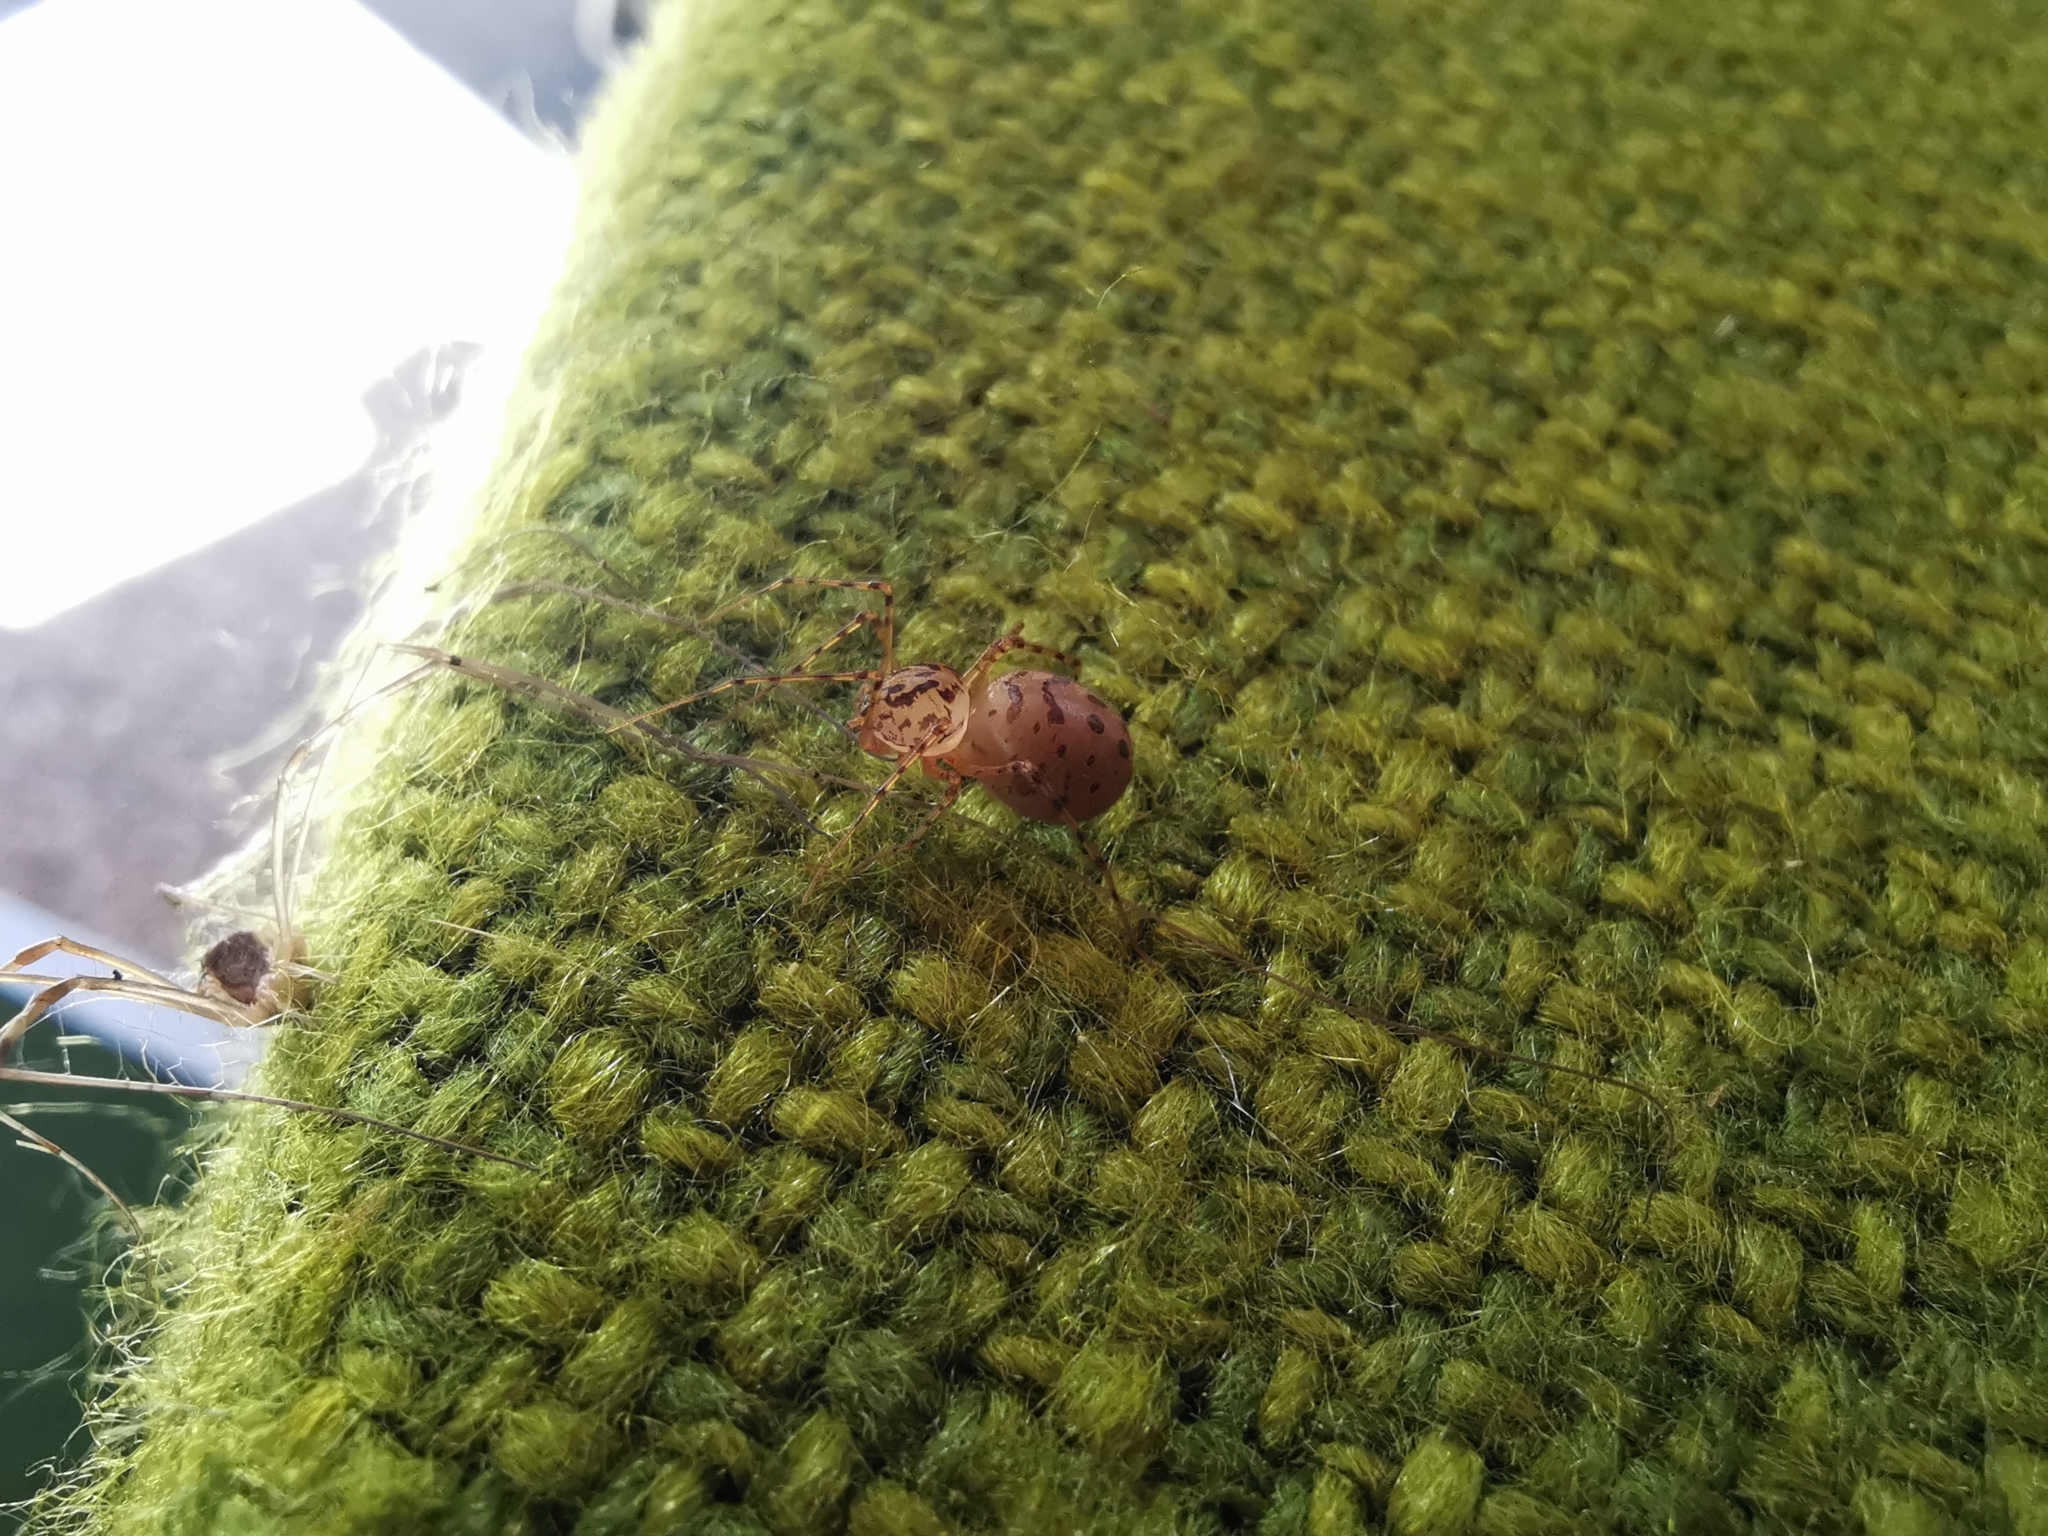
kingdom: Animalia
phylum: Arthropoda
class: Arachnida
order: Araneae
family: Scytodidae
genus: Scytodes
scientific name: Scytodes thoracica
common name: Spitting spider
